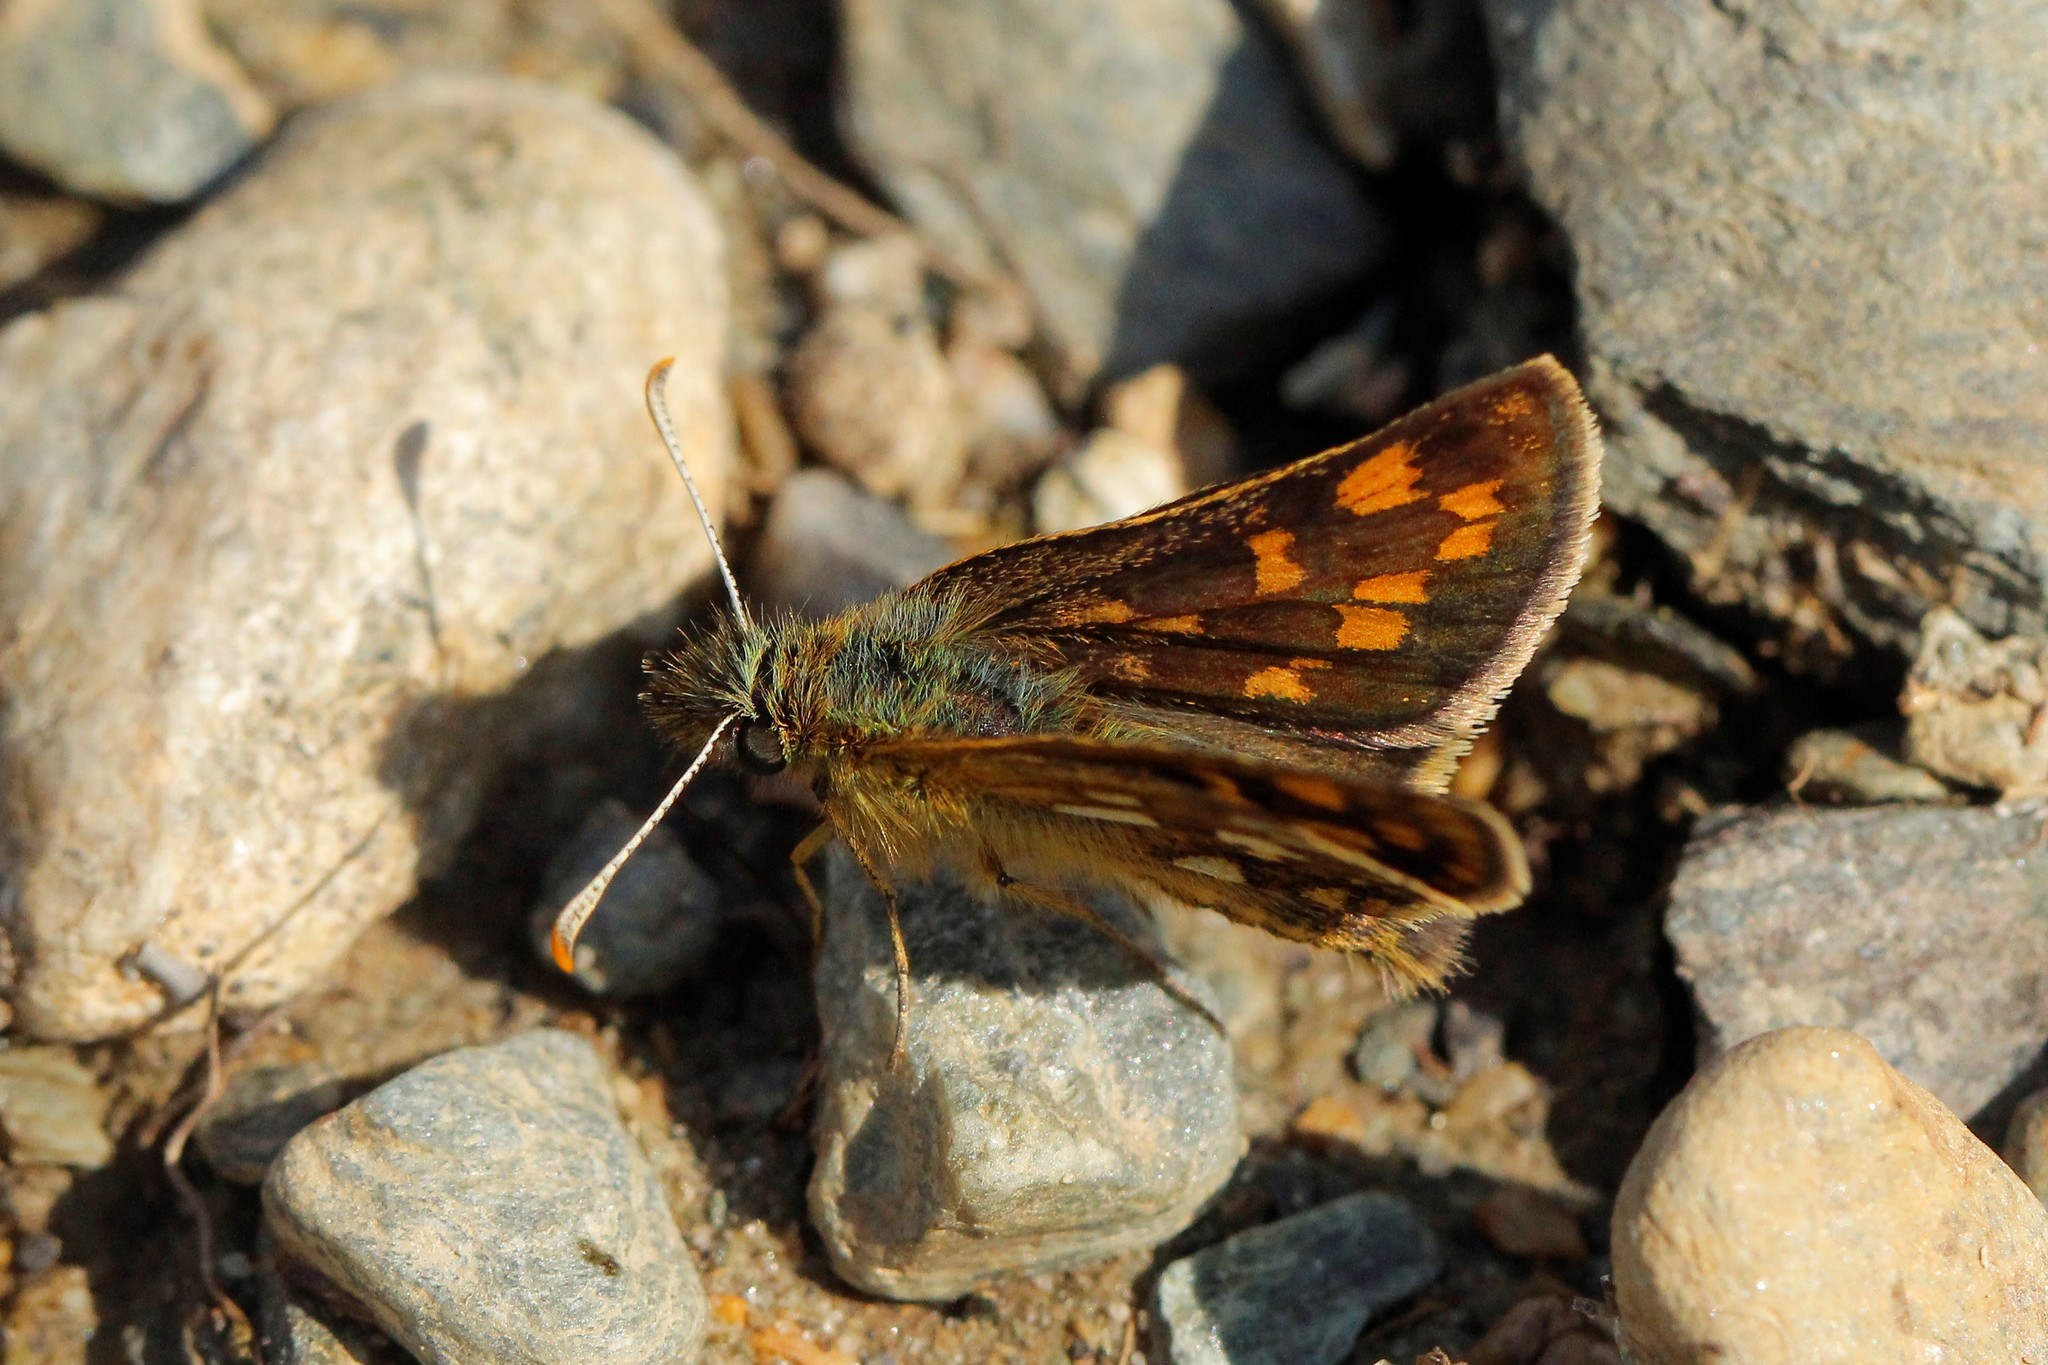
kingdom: Animalia
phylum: Arthropoda
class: Insecta
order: Lepidoptera
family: Hesperiidae
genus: Carterocephalus
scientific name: Carterocephalus palaemon
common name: Chequered skipper
